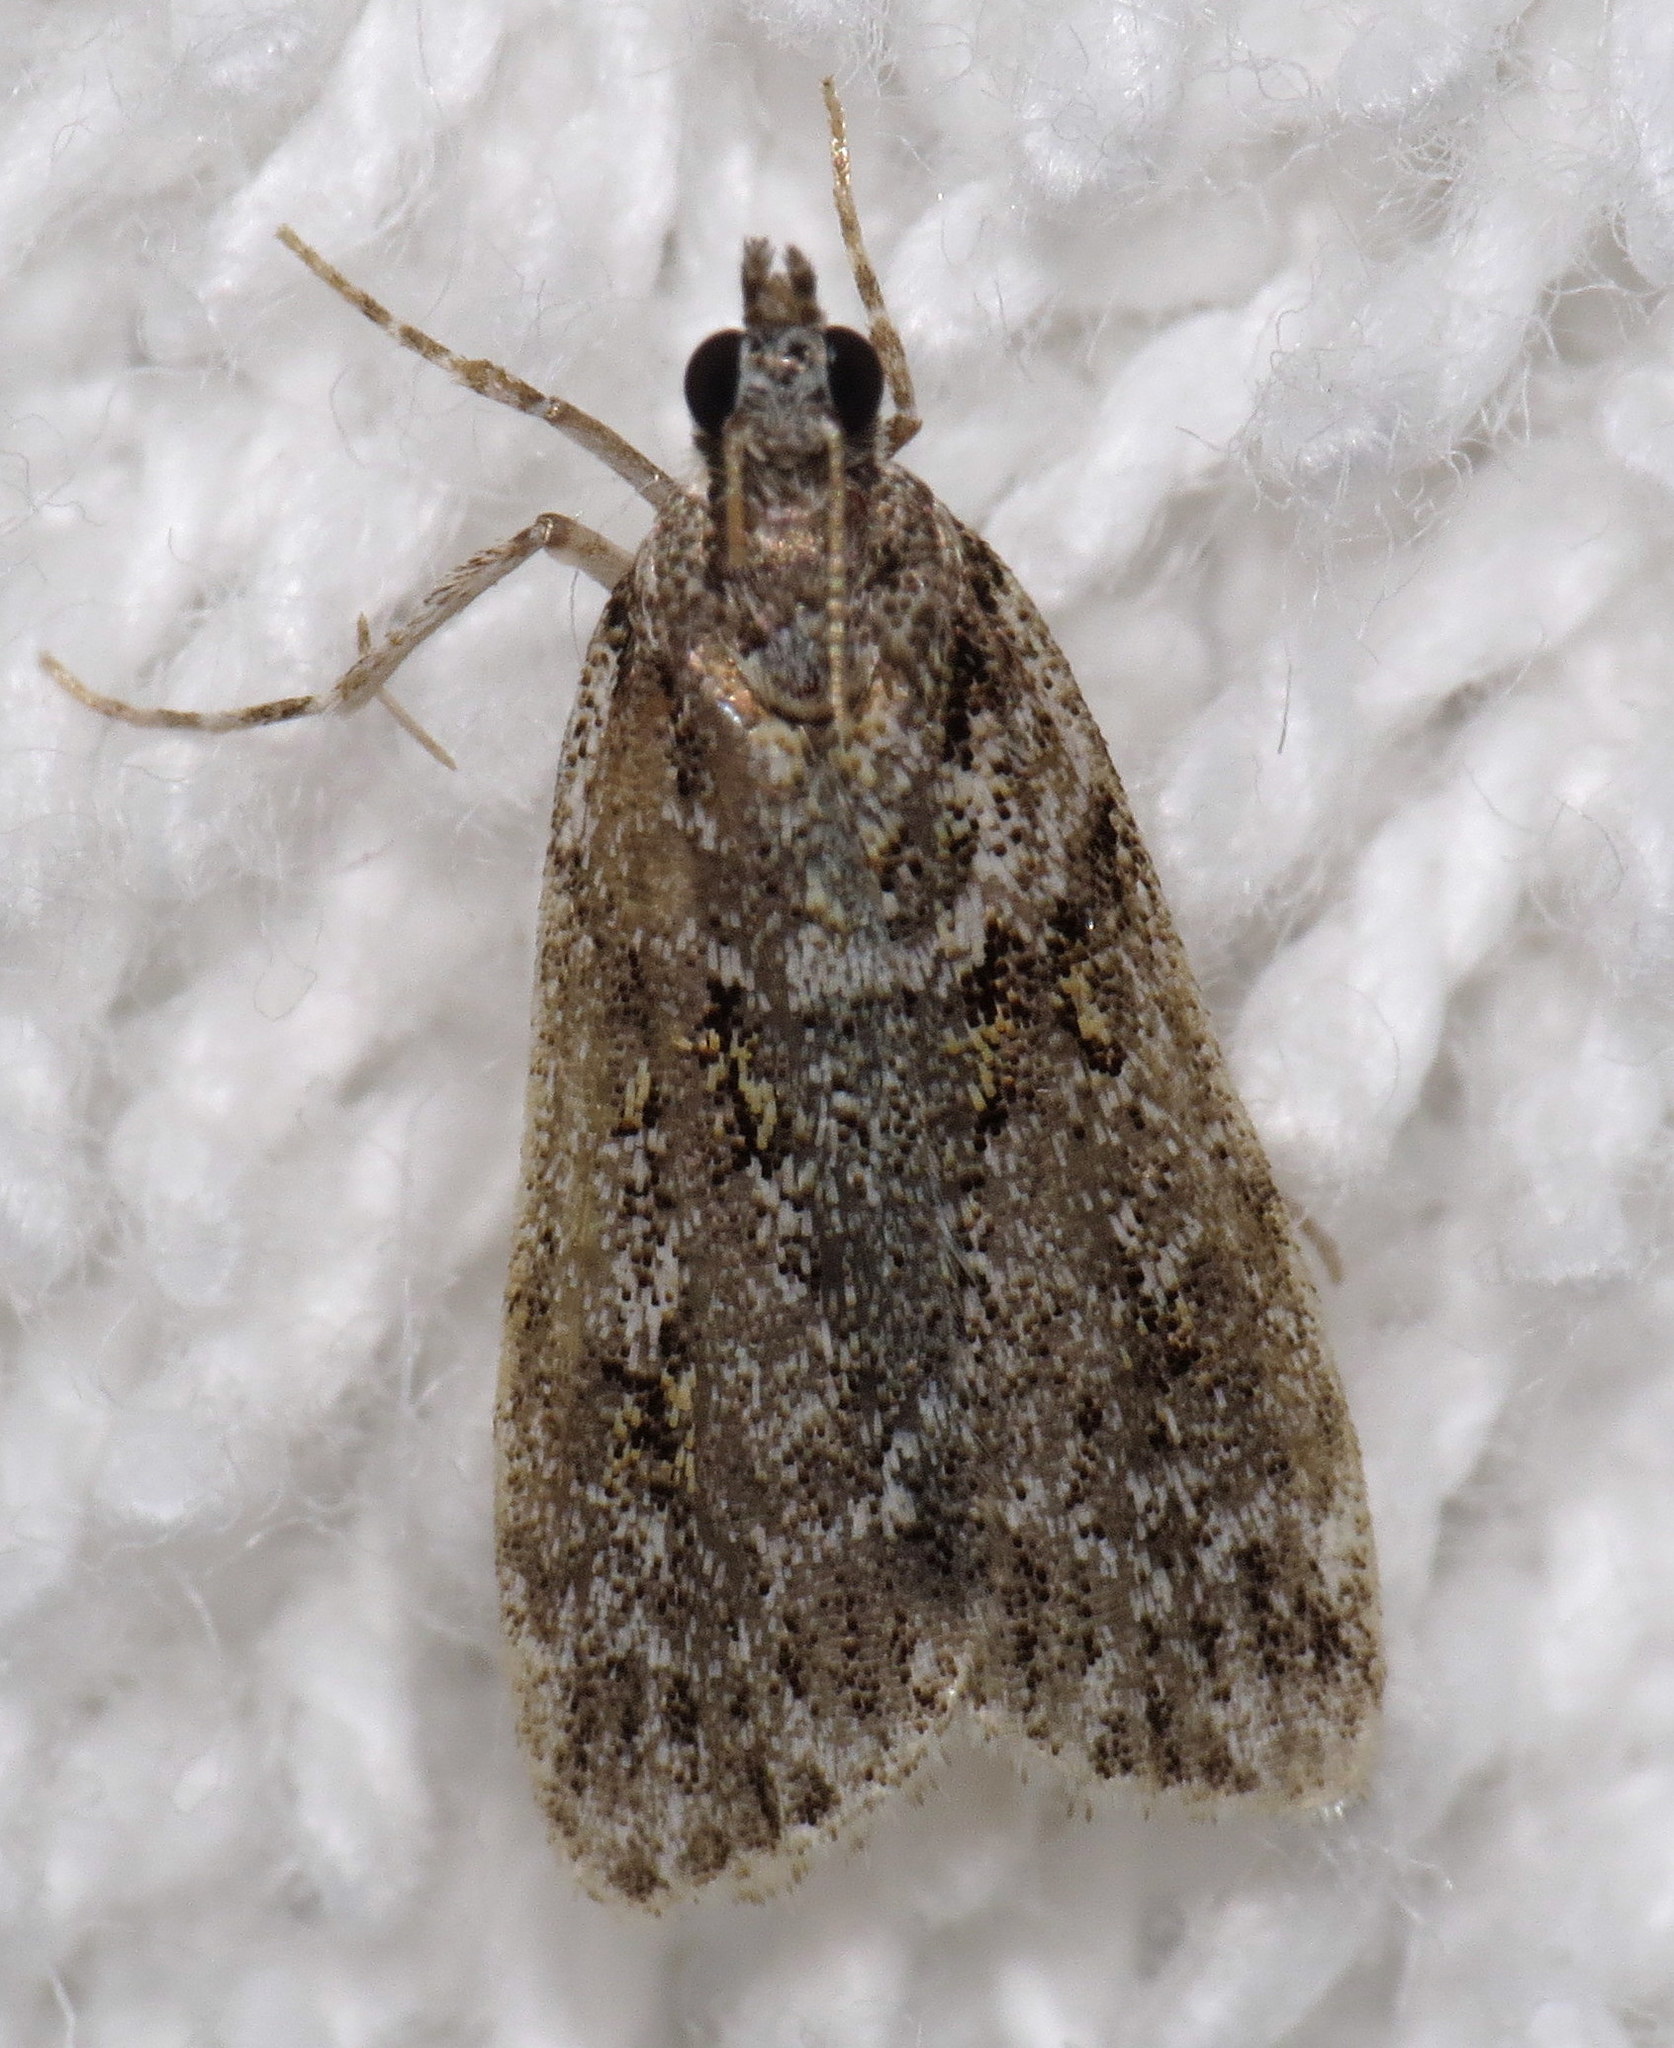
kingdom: Animalia
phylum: Arthropoda
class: Insecta
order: Lepidoptera
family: Crambidae
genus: Scoparia
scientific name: Scoparia biplagialis
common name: Double-striped scoparia moth
